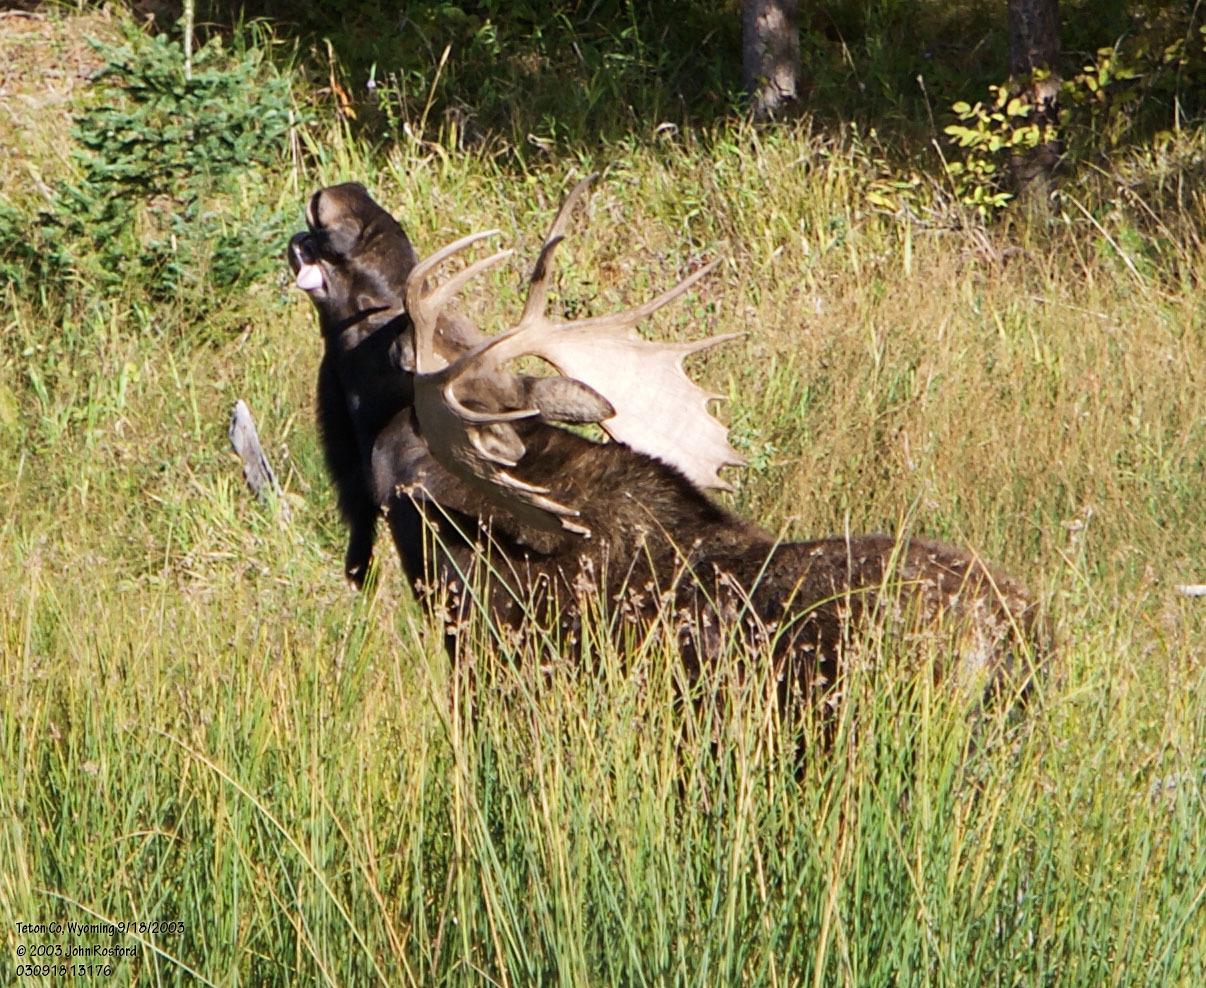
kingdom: Animalia
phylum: Chordata
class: Mammalia
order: Artiodactyla
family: Cervidae
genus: Alces
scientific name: Alces americanus
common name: Moose
